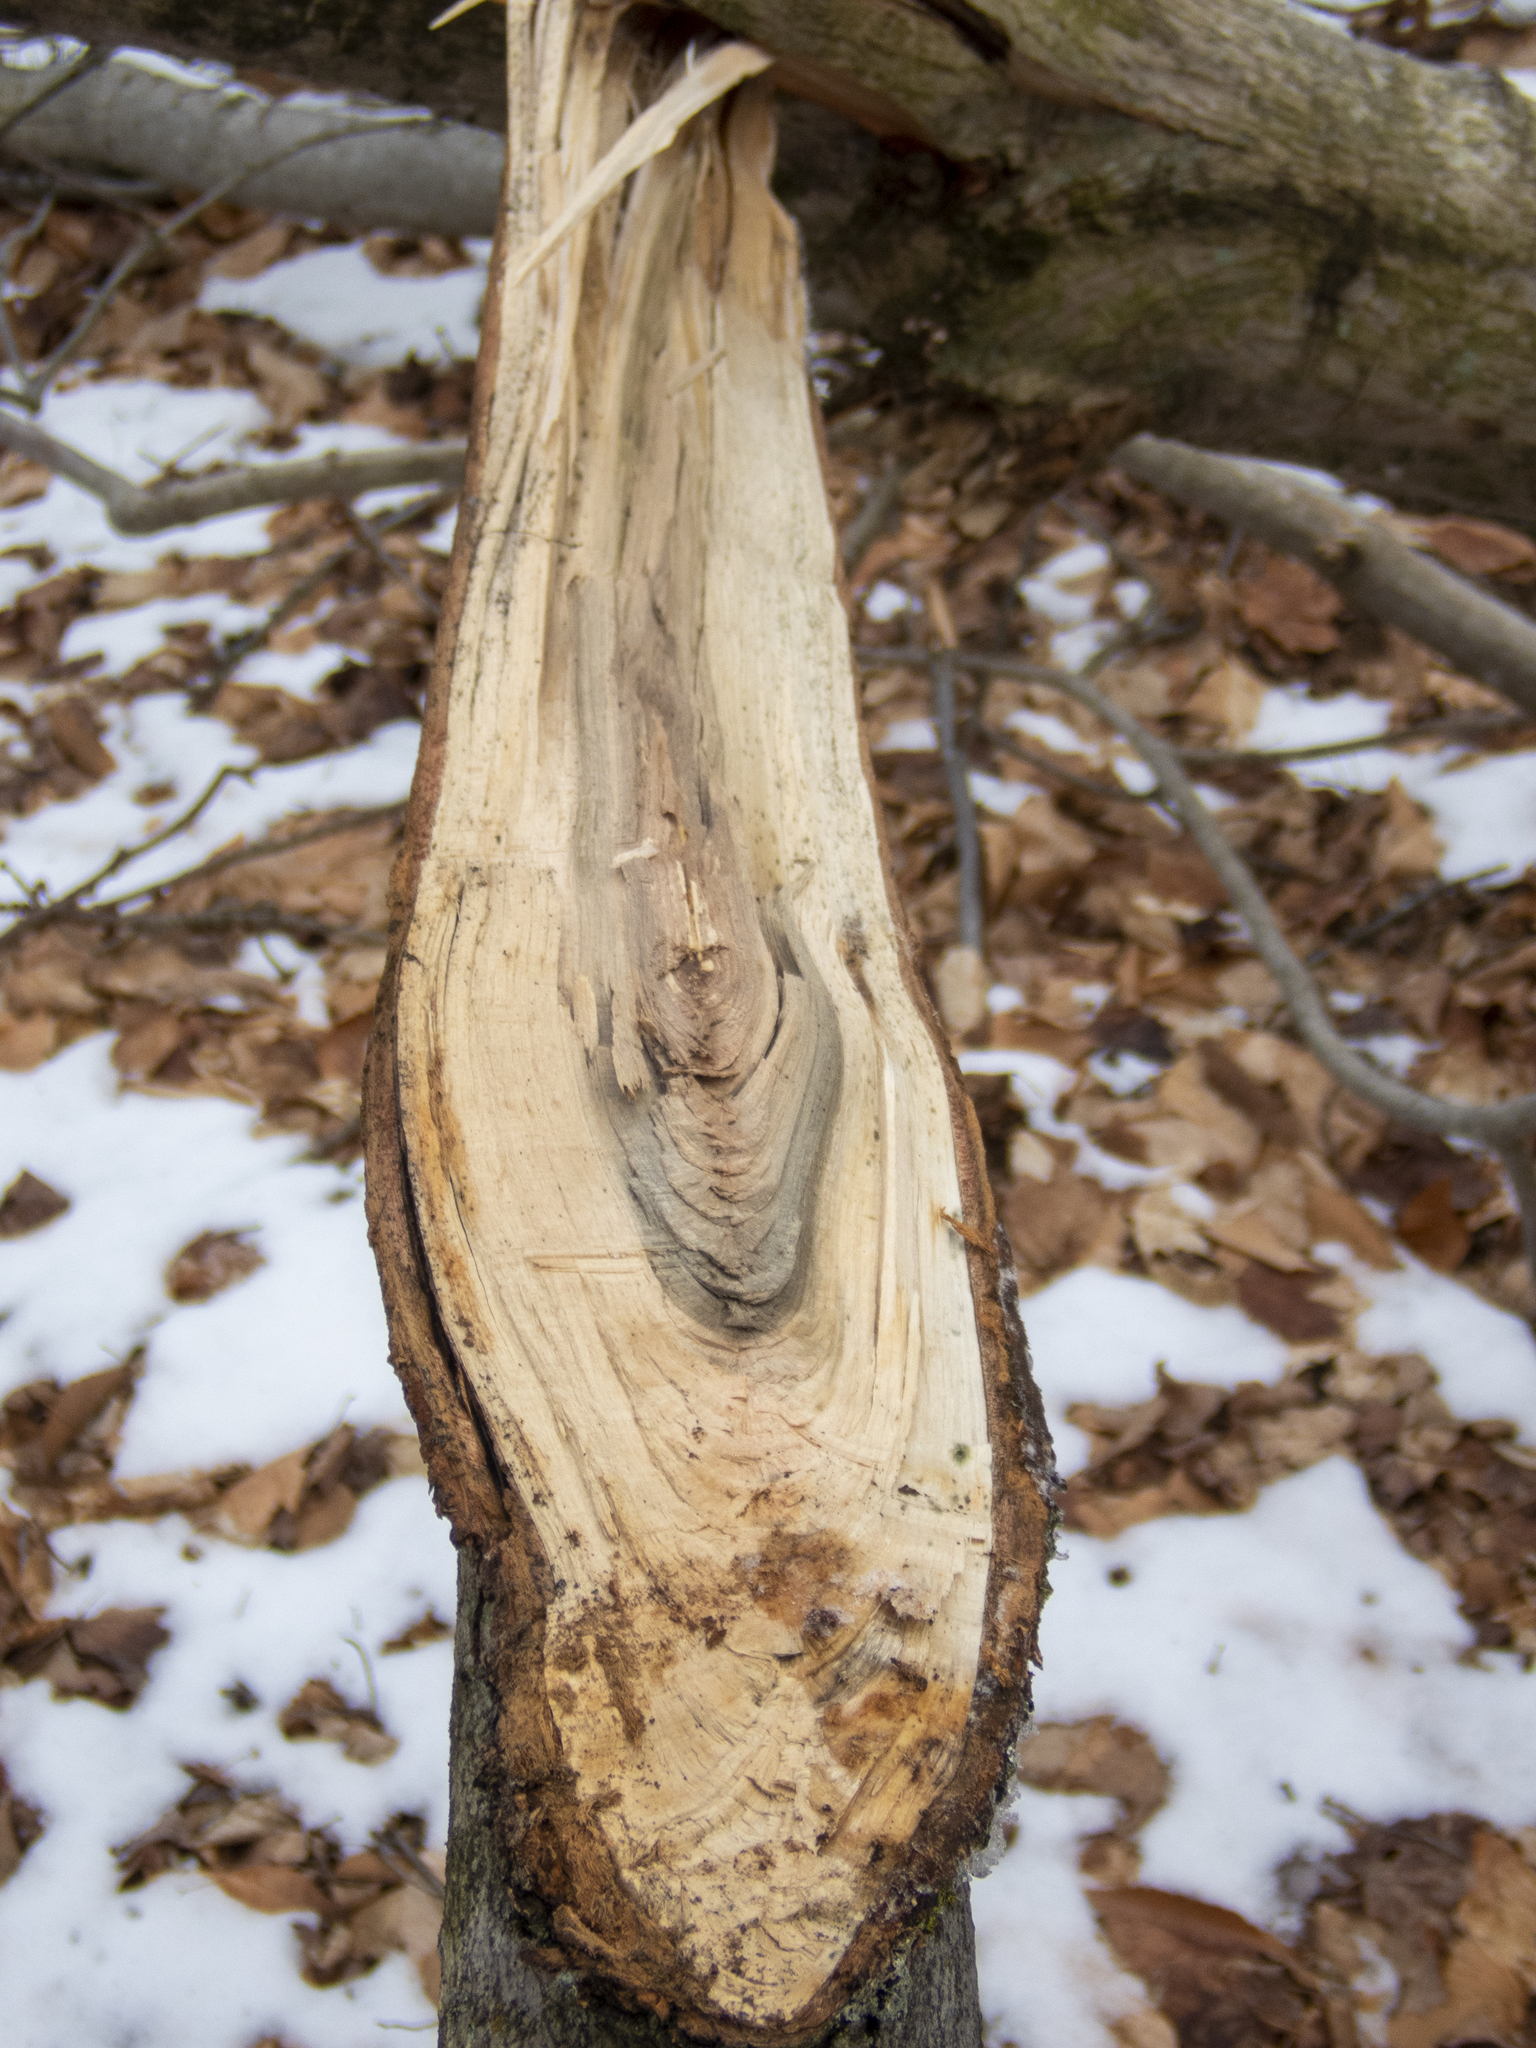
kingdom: Plantae
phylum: Tracheophyta
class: Magnoliopsida
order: Sapindales
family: Sapindaceae
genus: Acer
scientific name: Acer rubrum
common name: Red maple
